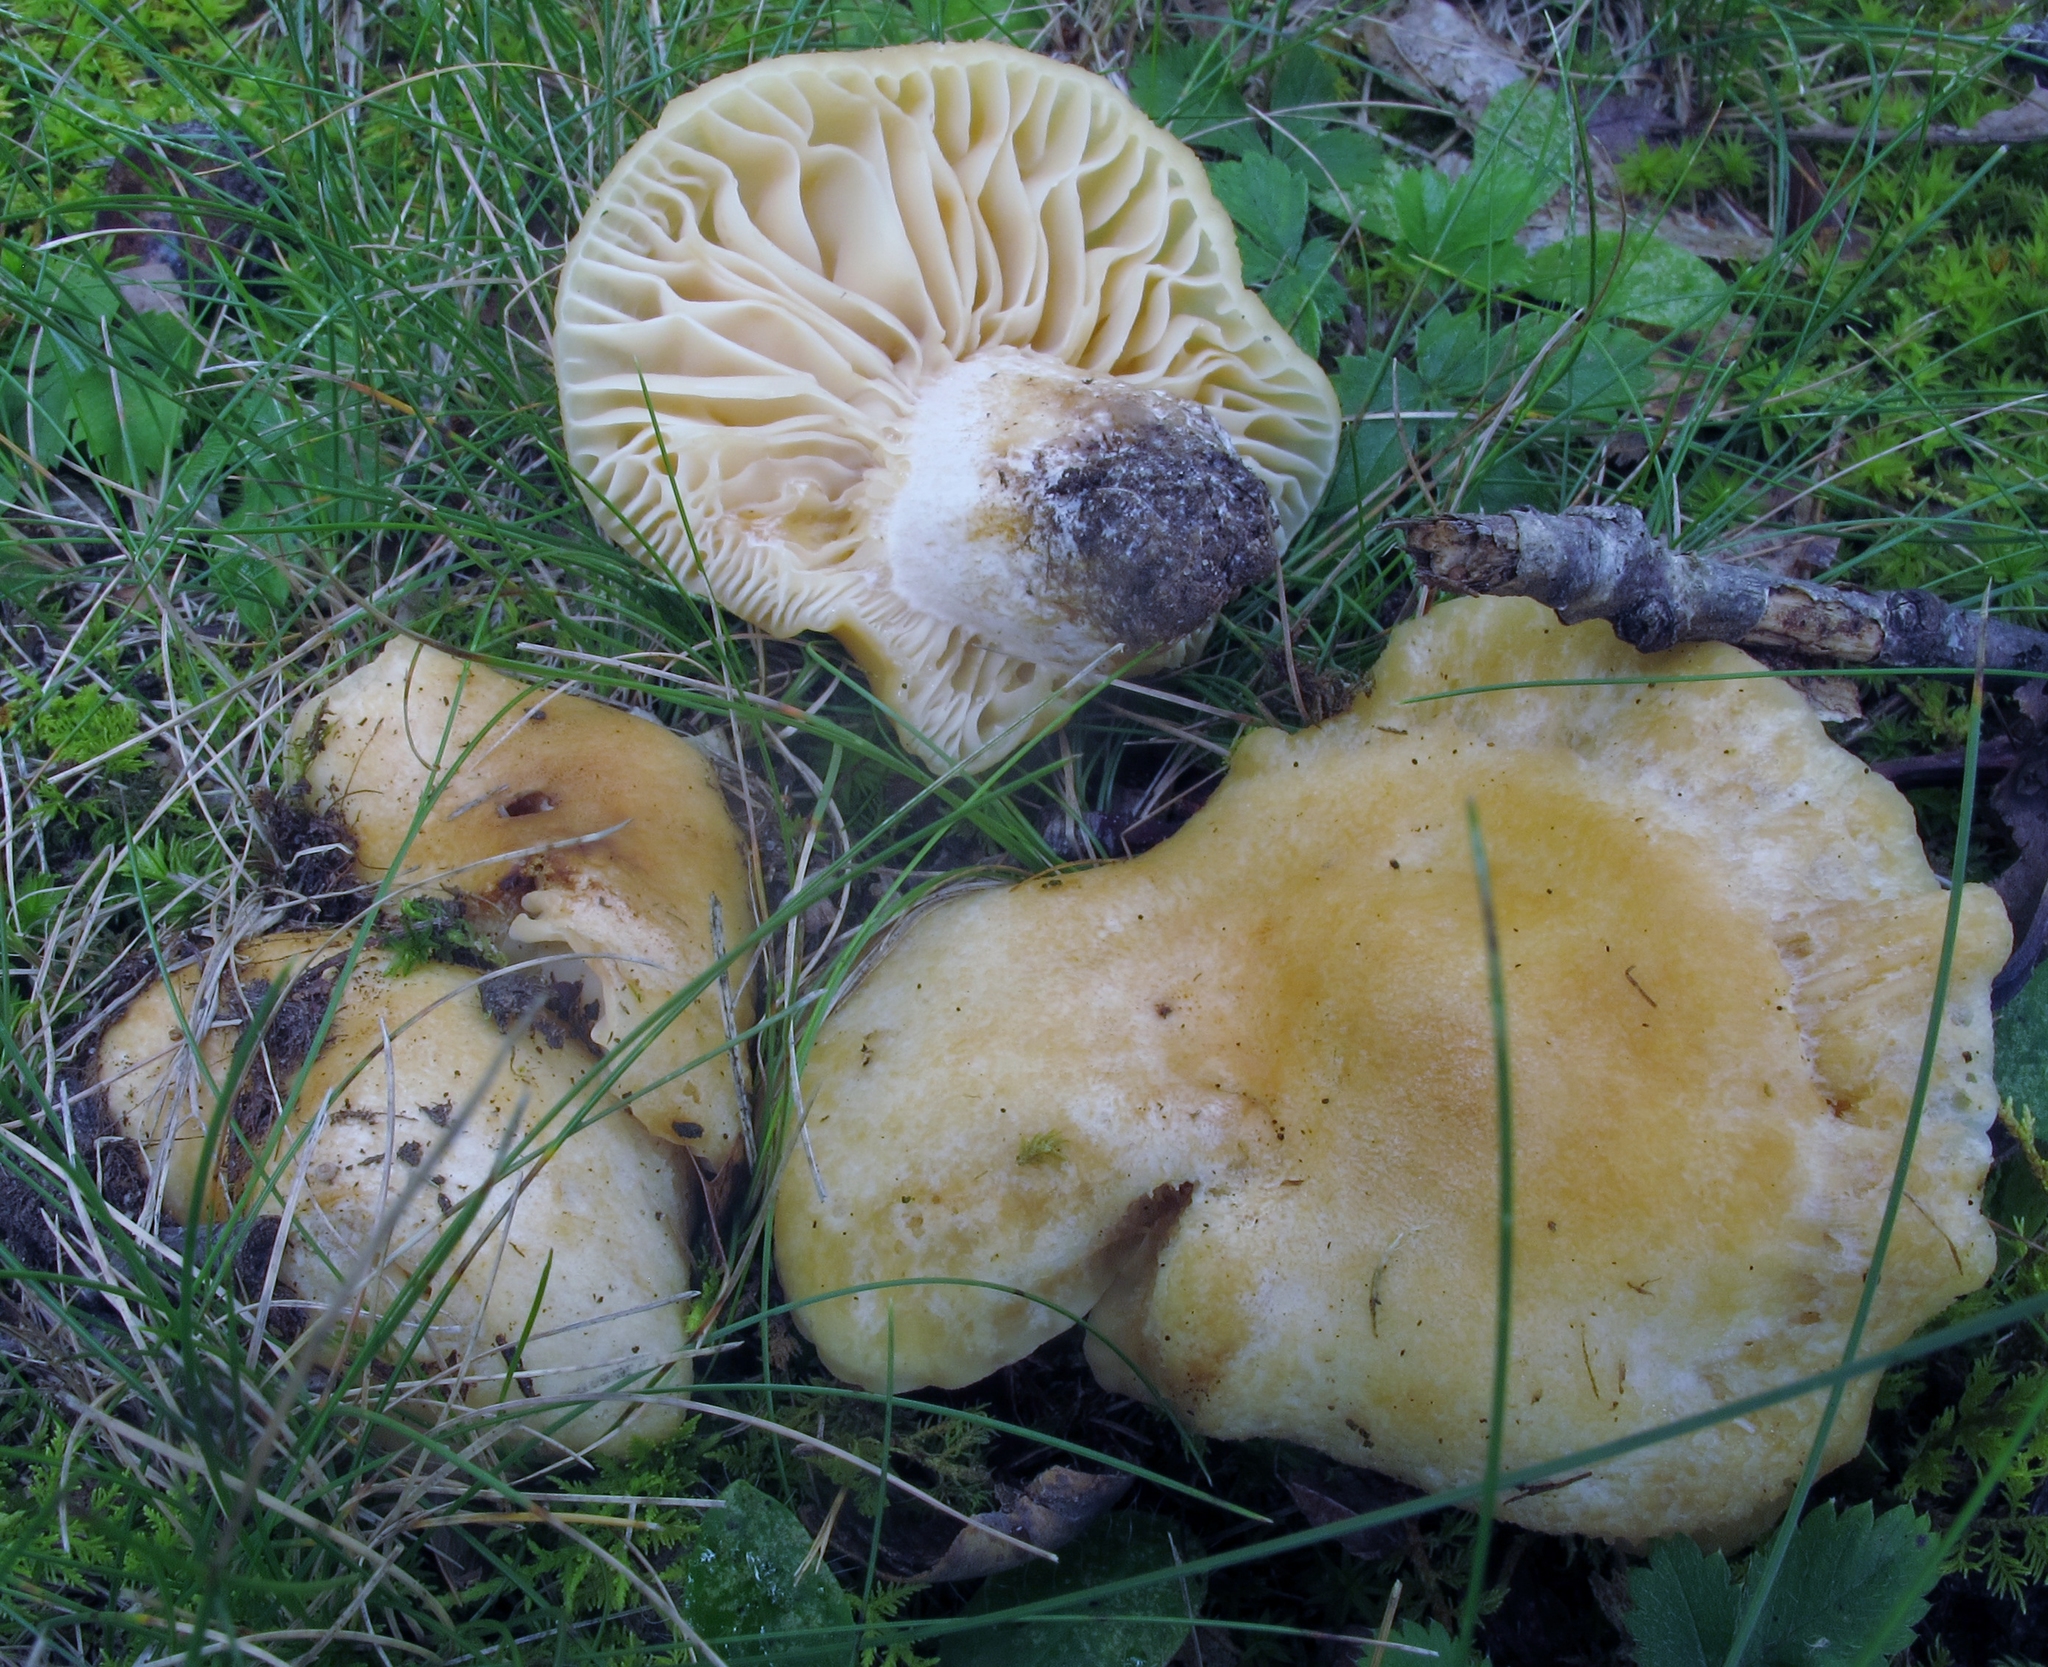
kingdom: Fungi
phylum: Basidiomycota
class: Agaricomycetes
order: Russulales
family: Russulaceae
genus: Russula
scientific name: Russula earlei
